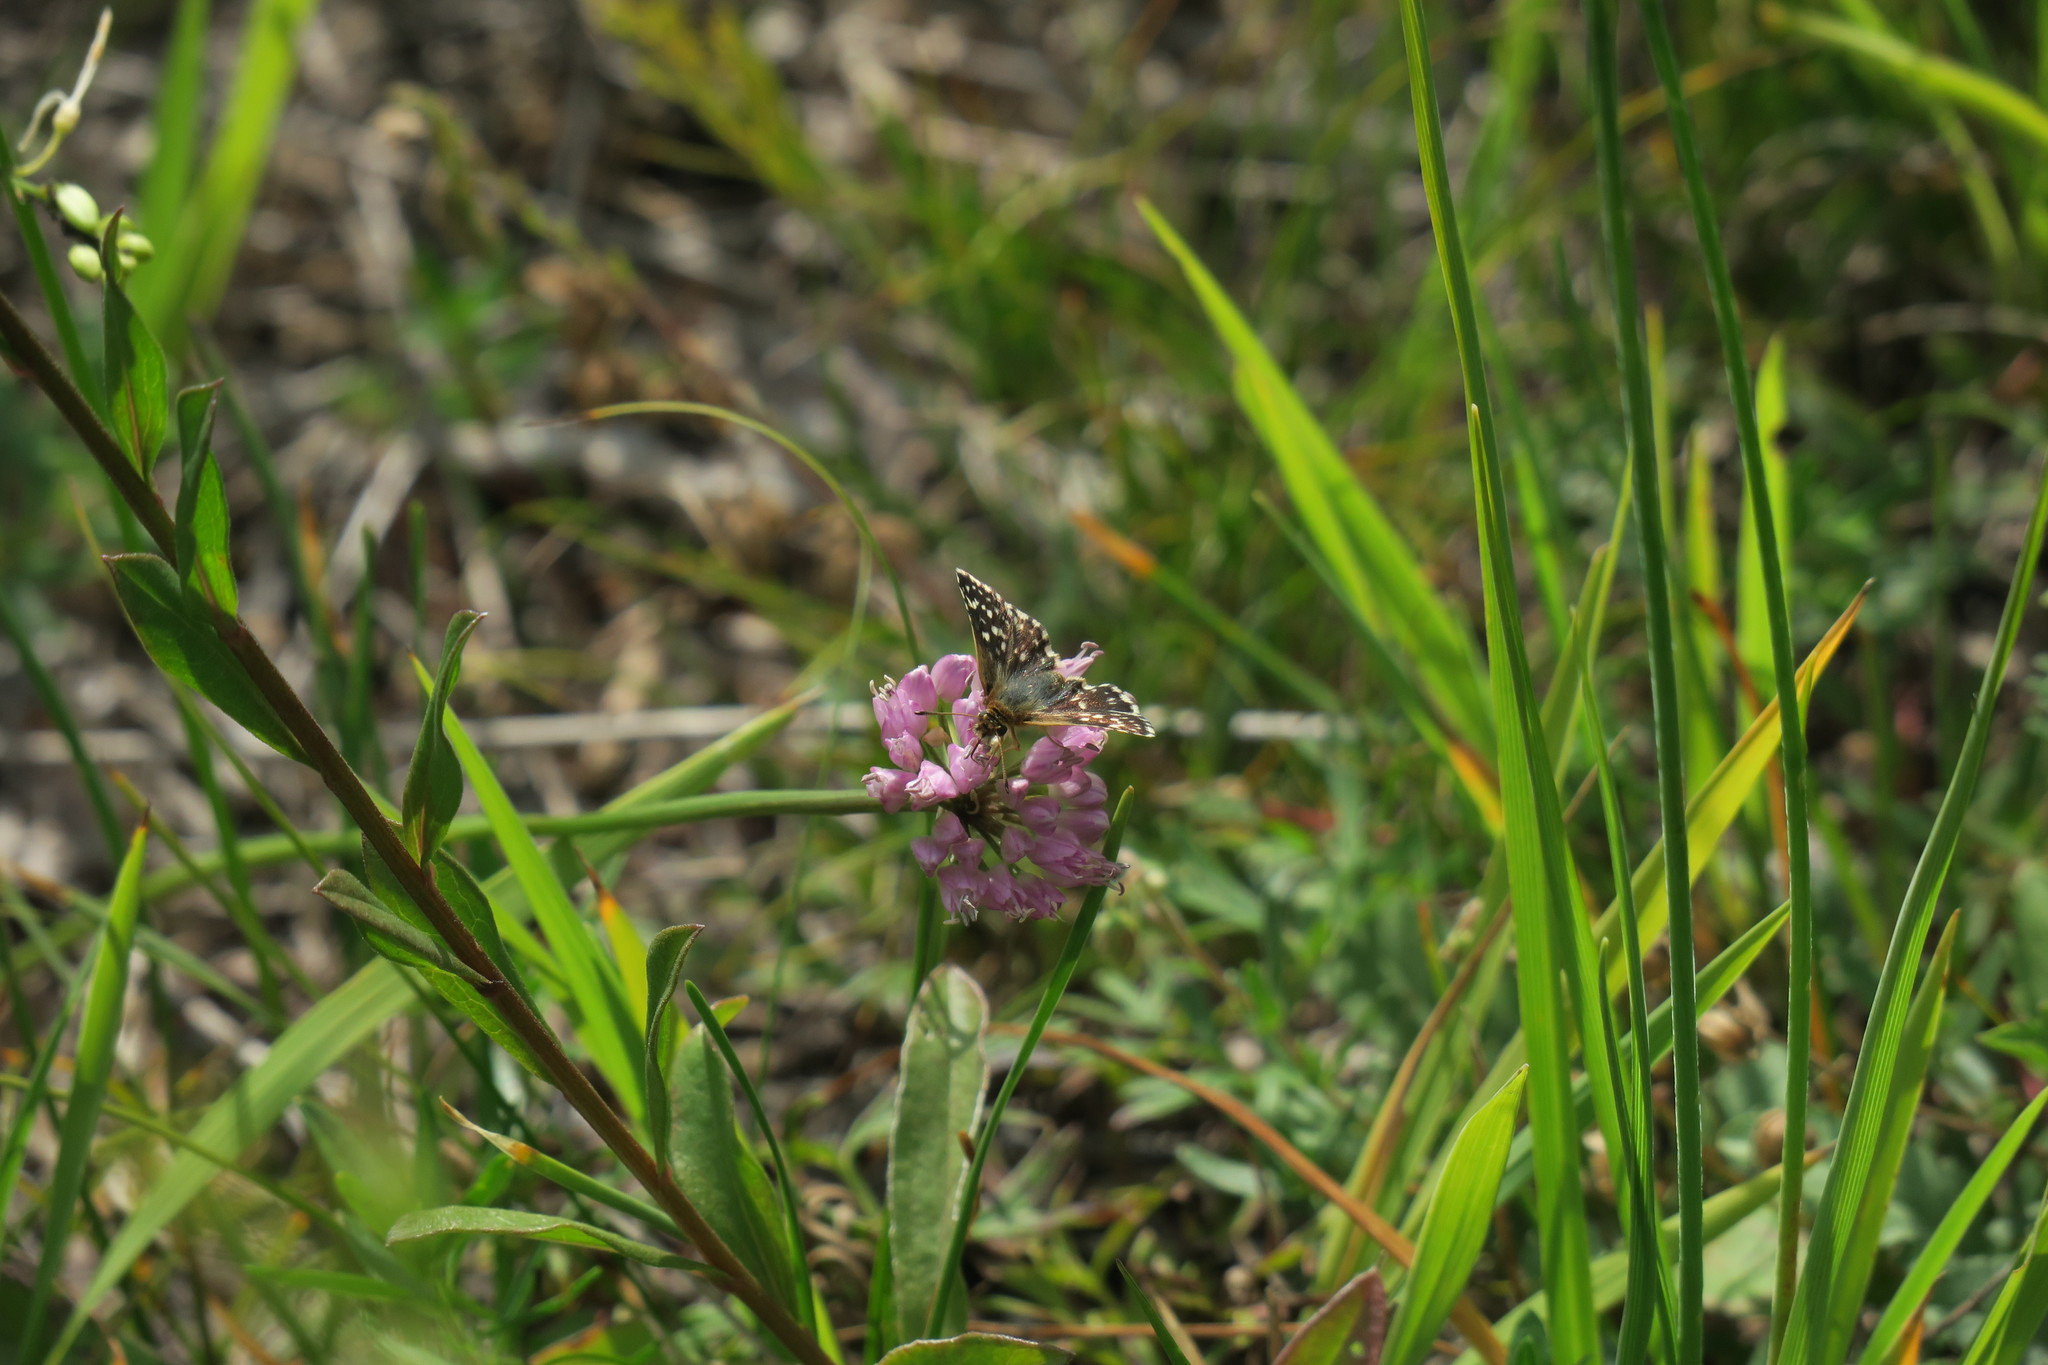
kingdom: Animalia
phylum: Arthropoda
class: Insecta
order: Lepidoptera
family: Hesperiidae
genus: Spialia
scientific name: Spialia sertorius
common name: Red underwing skipper
